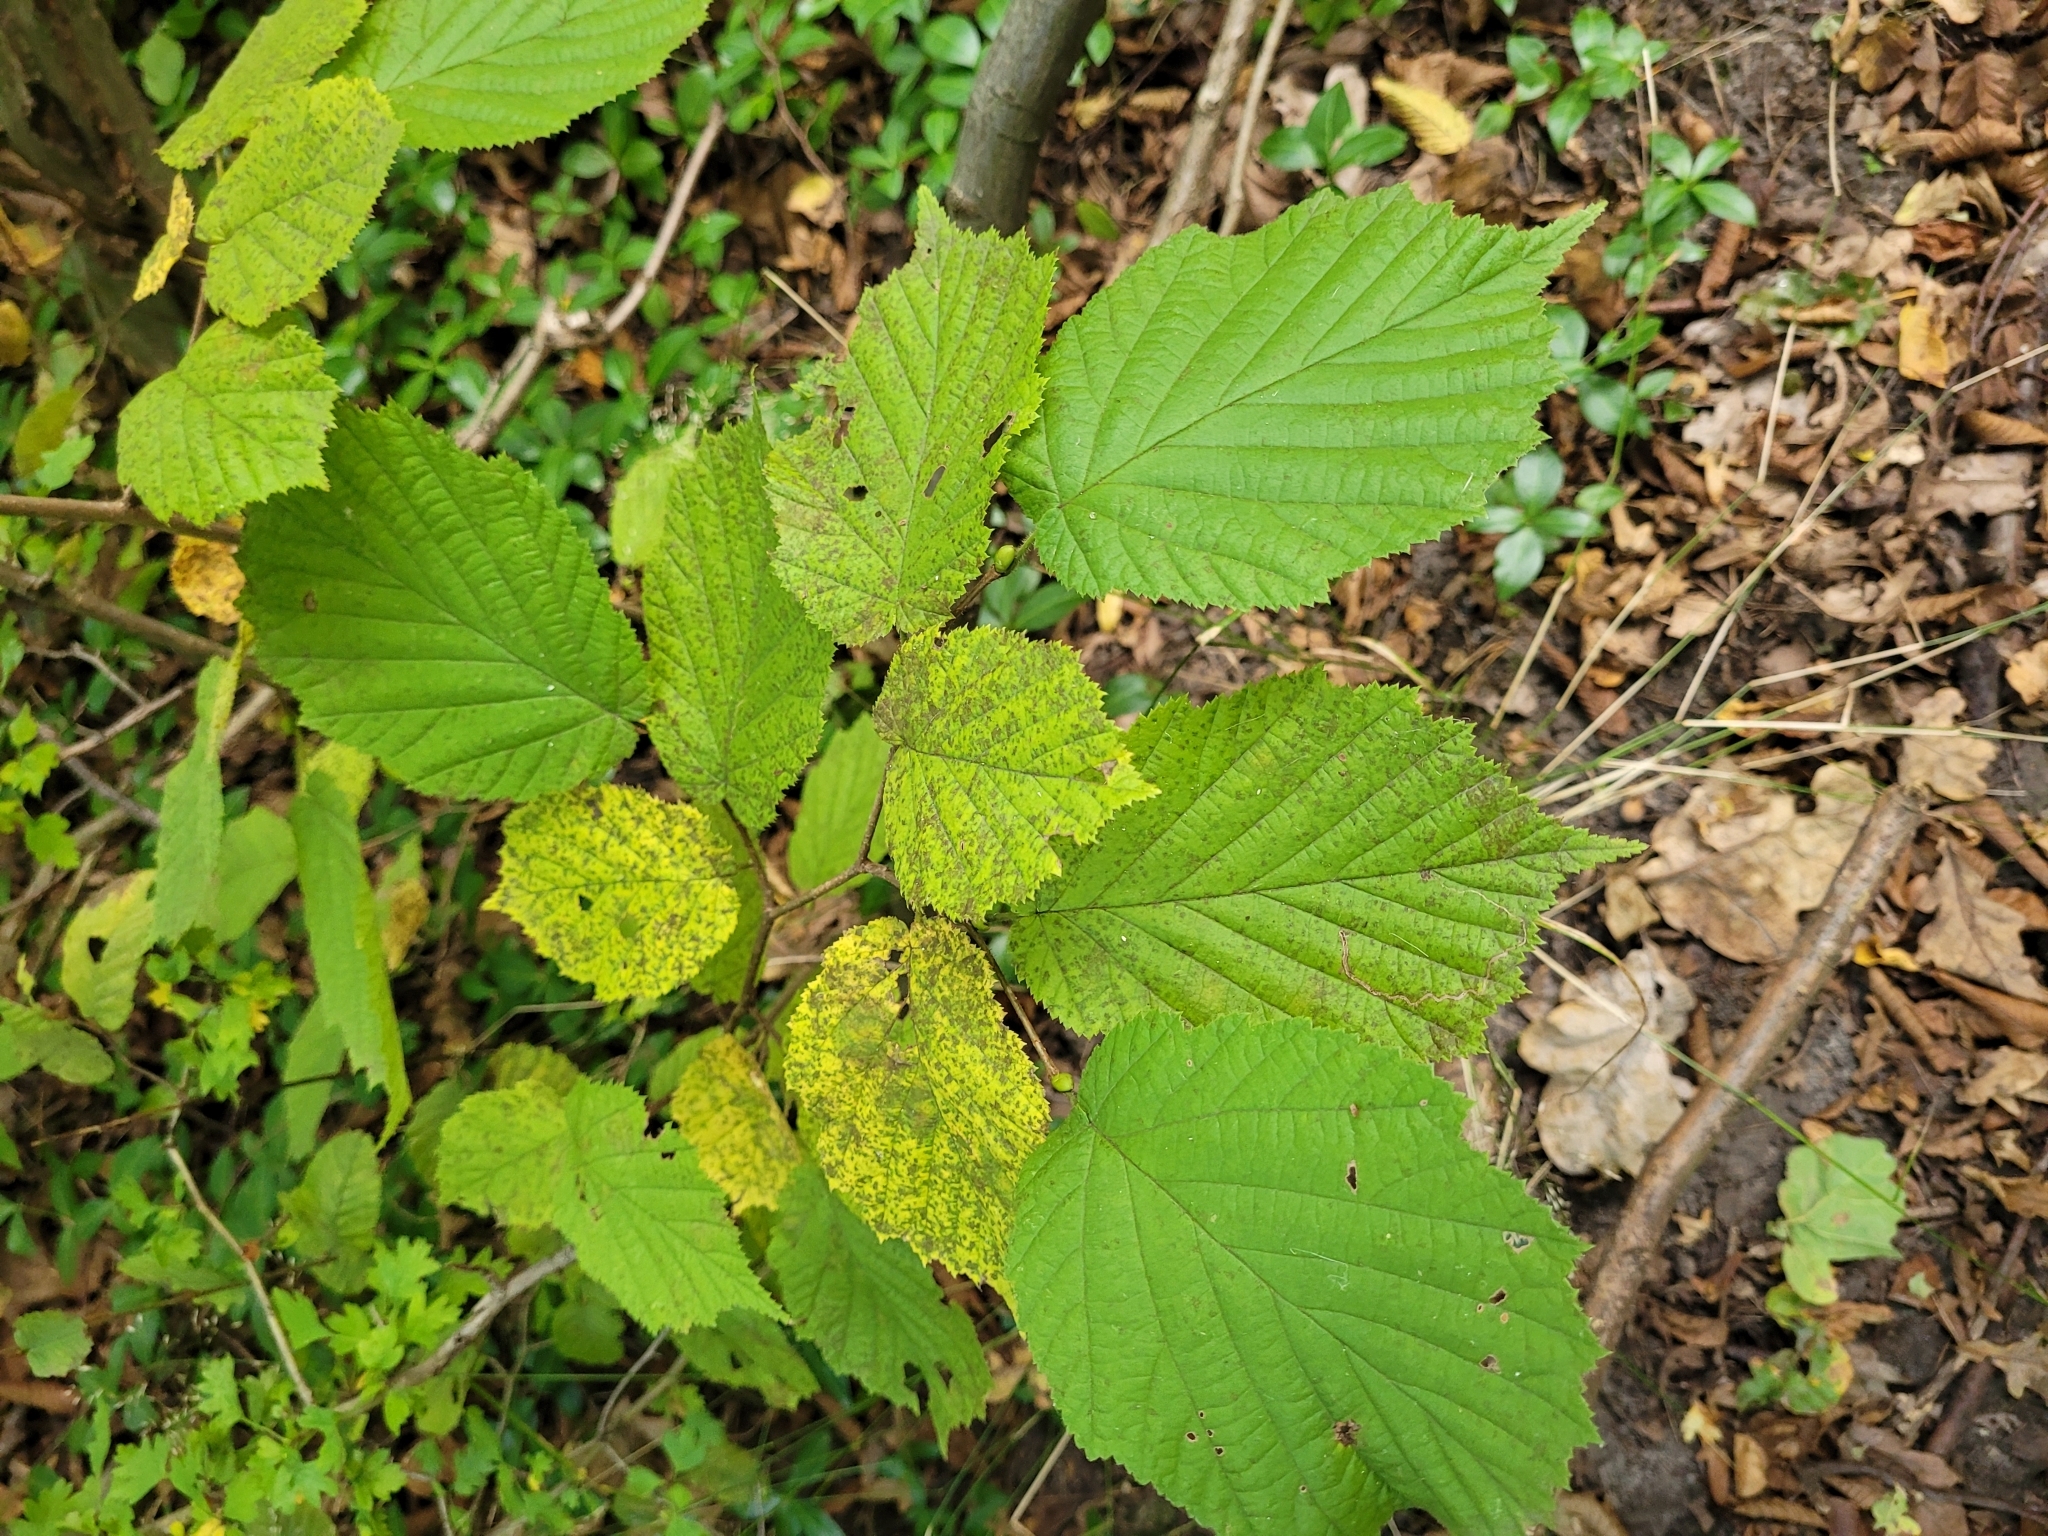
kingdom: Plantae
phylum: Tracheophyta
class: Magnoliopsida
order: Fagales
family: Betulaceae
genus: Corylus
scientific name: Corylus avellana
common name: European hazel
